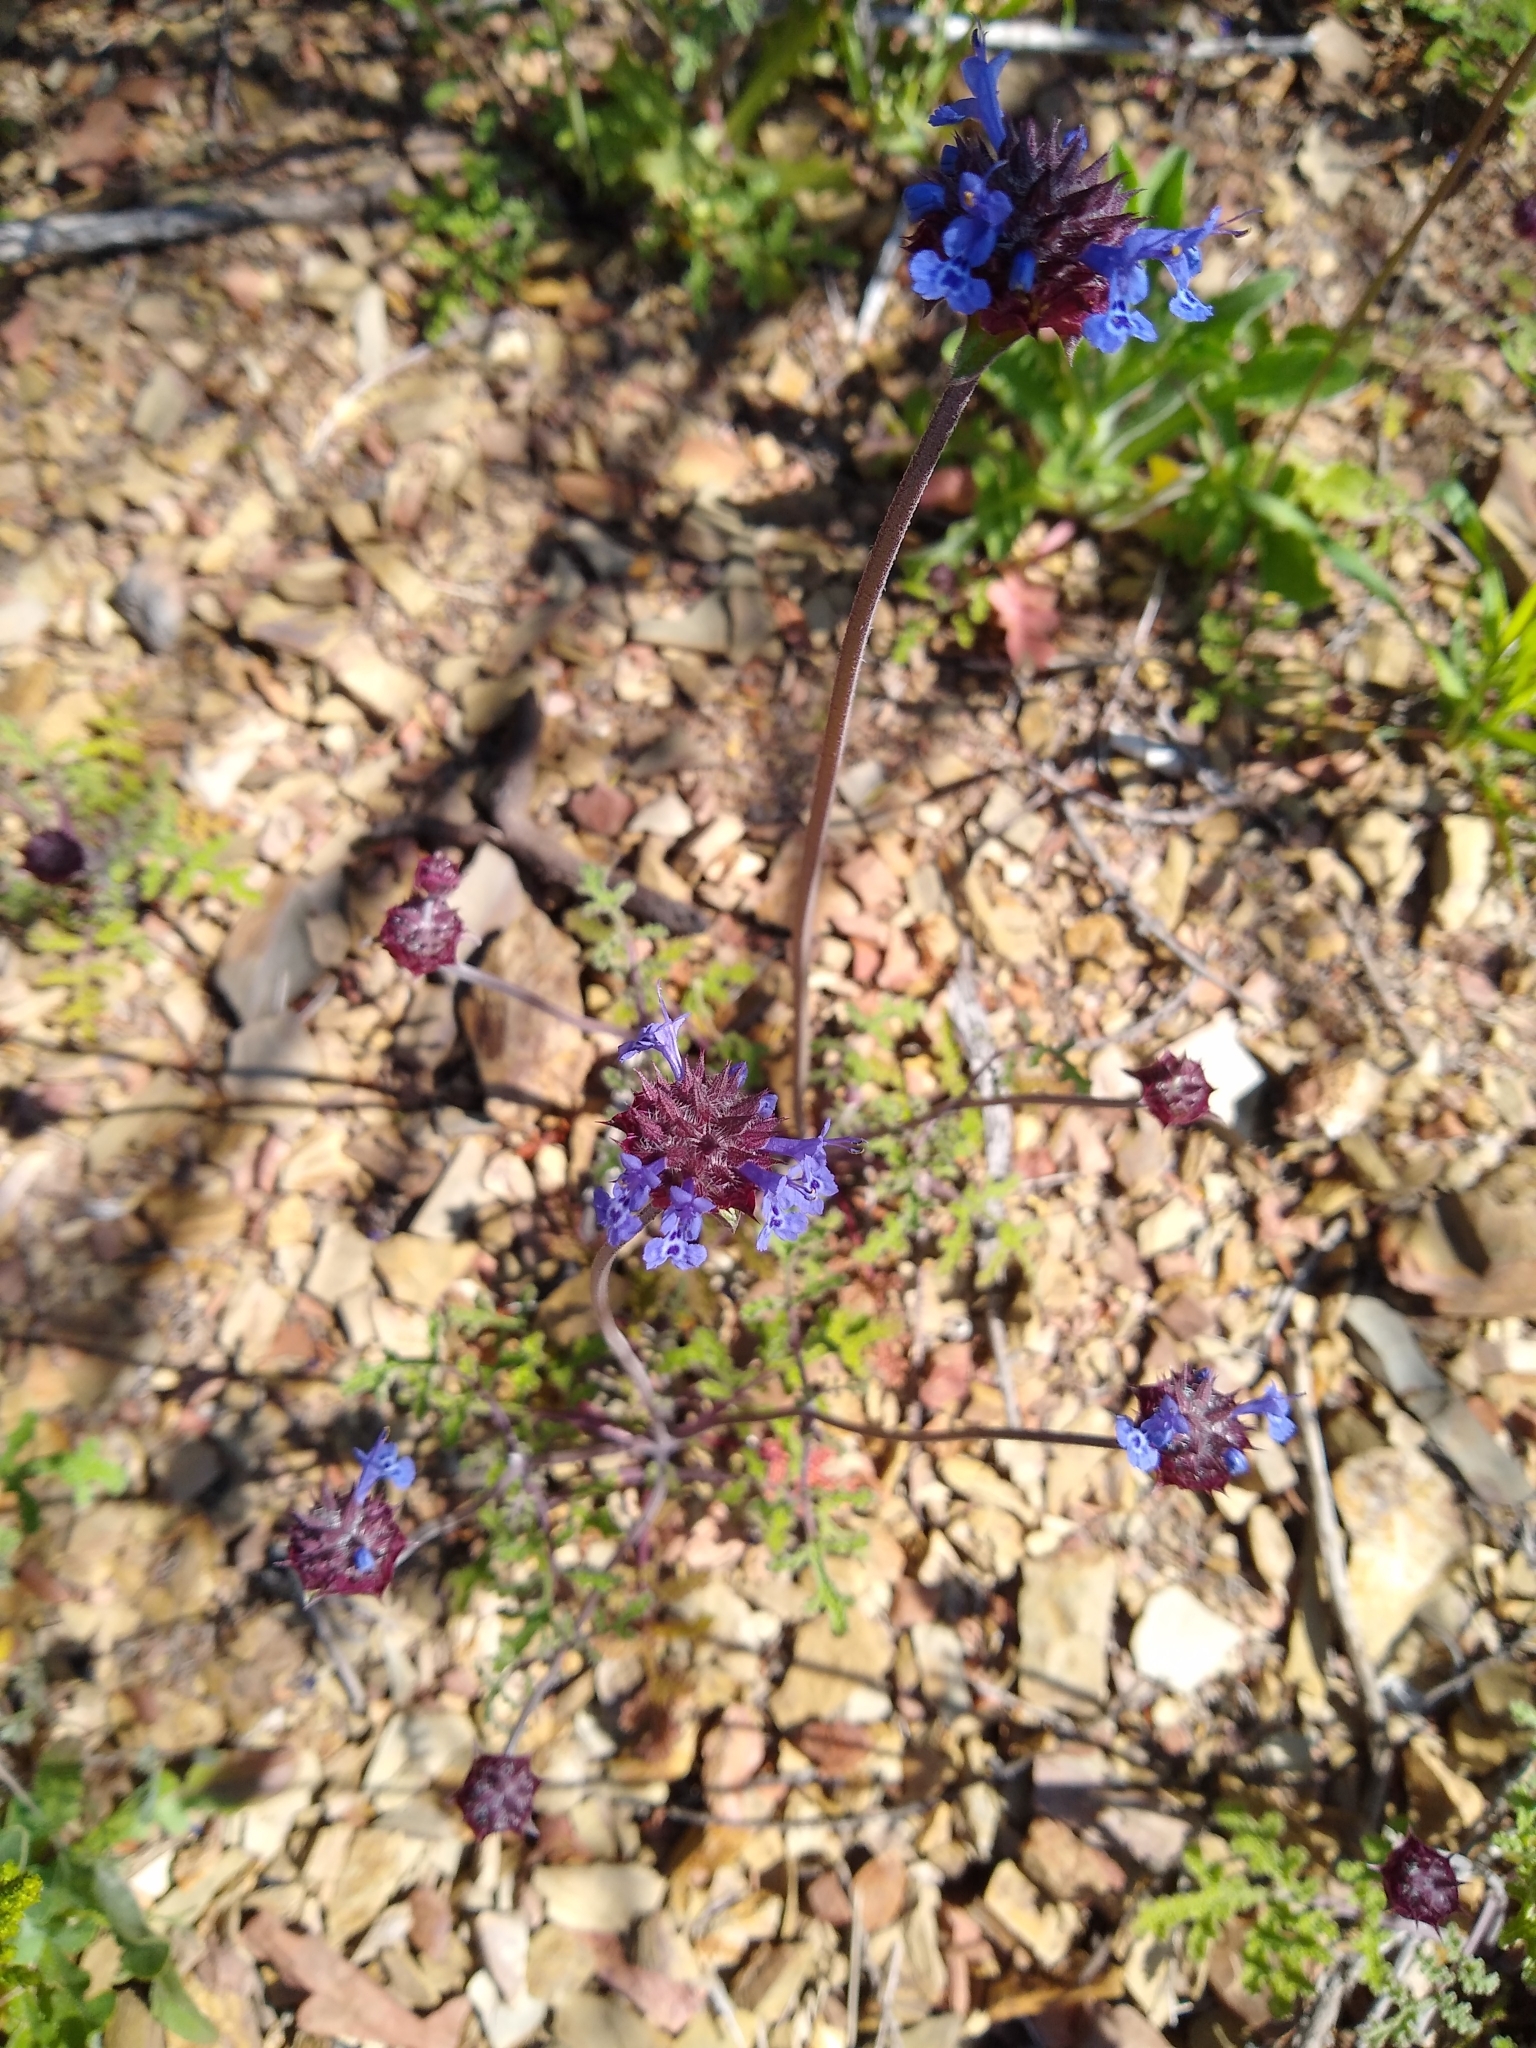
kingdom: Plantae
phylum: Tracheophyta
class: Magnoliopsida
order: Lamiales
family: Lamiaceae
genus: Salvia
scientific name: Salvia columbariae
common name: Chia
